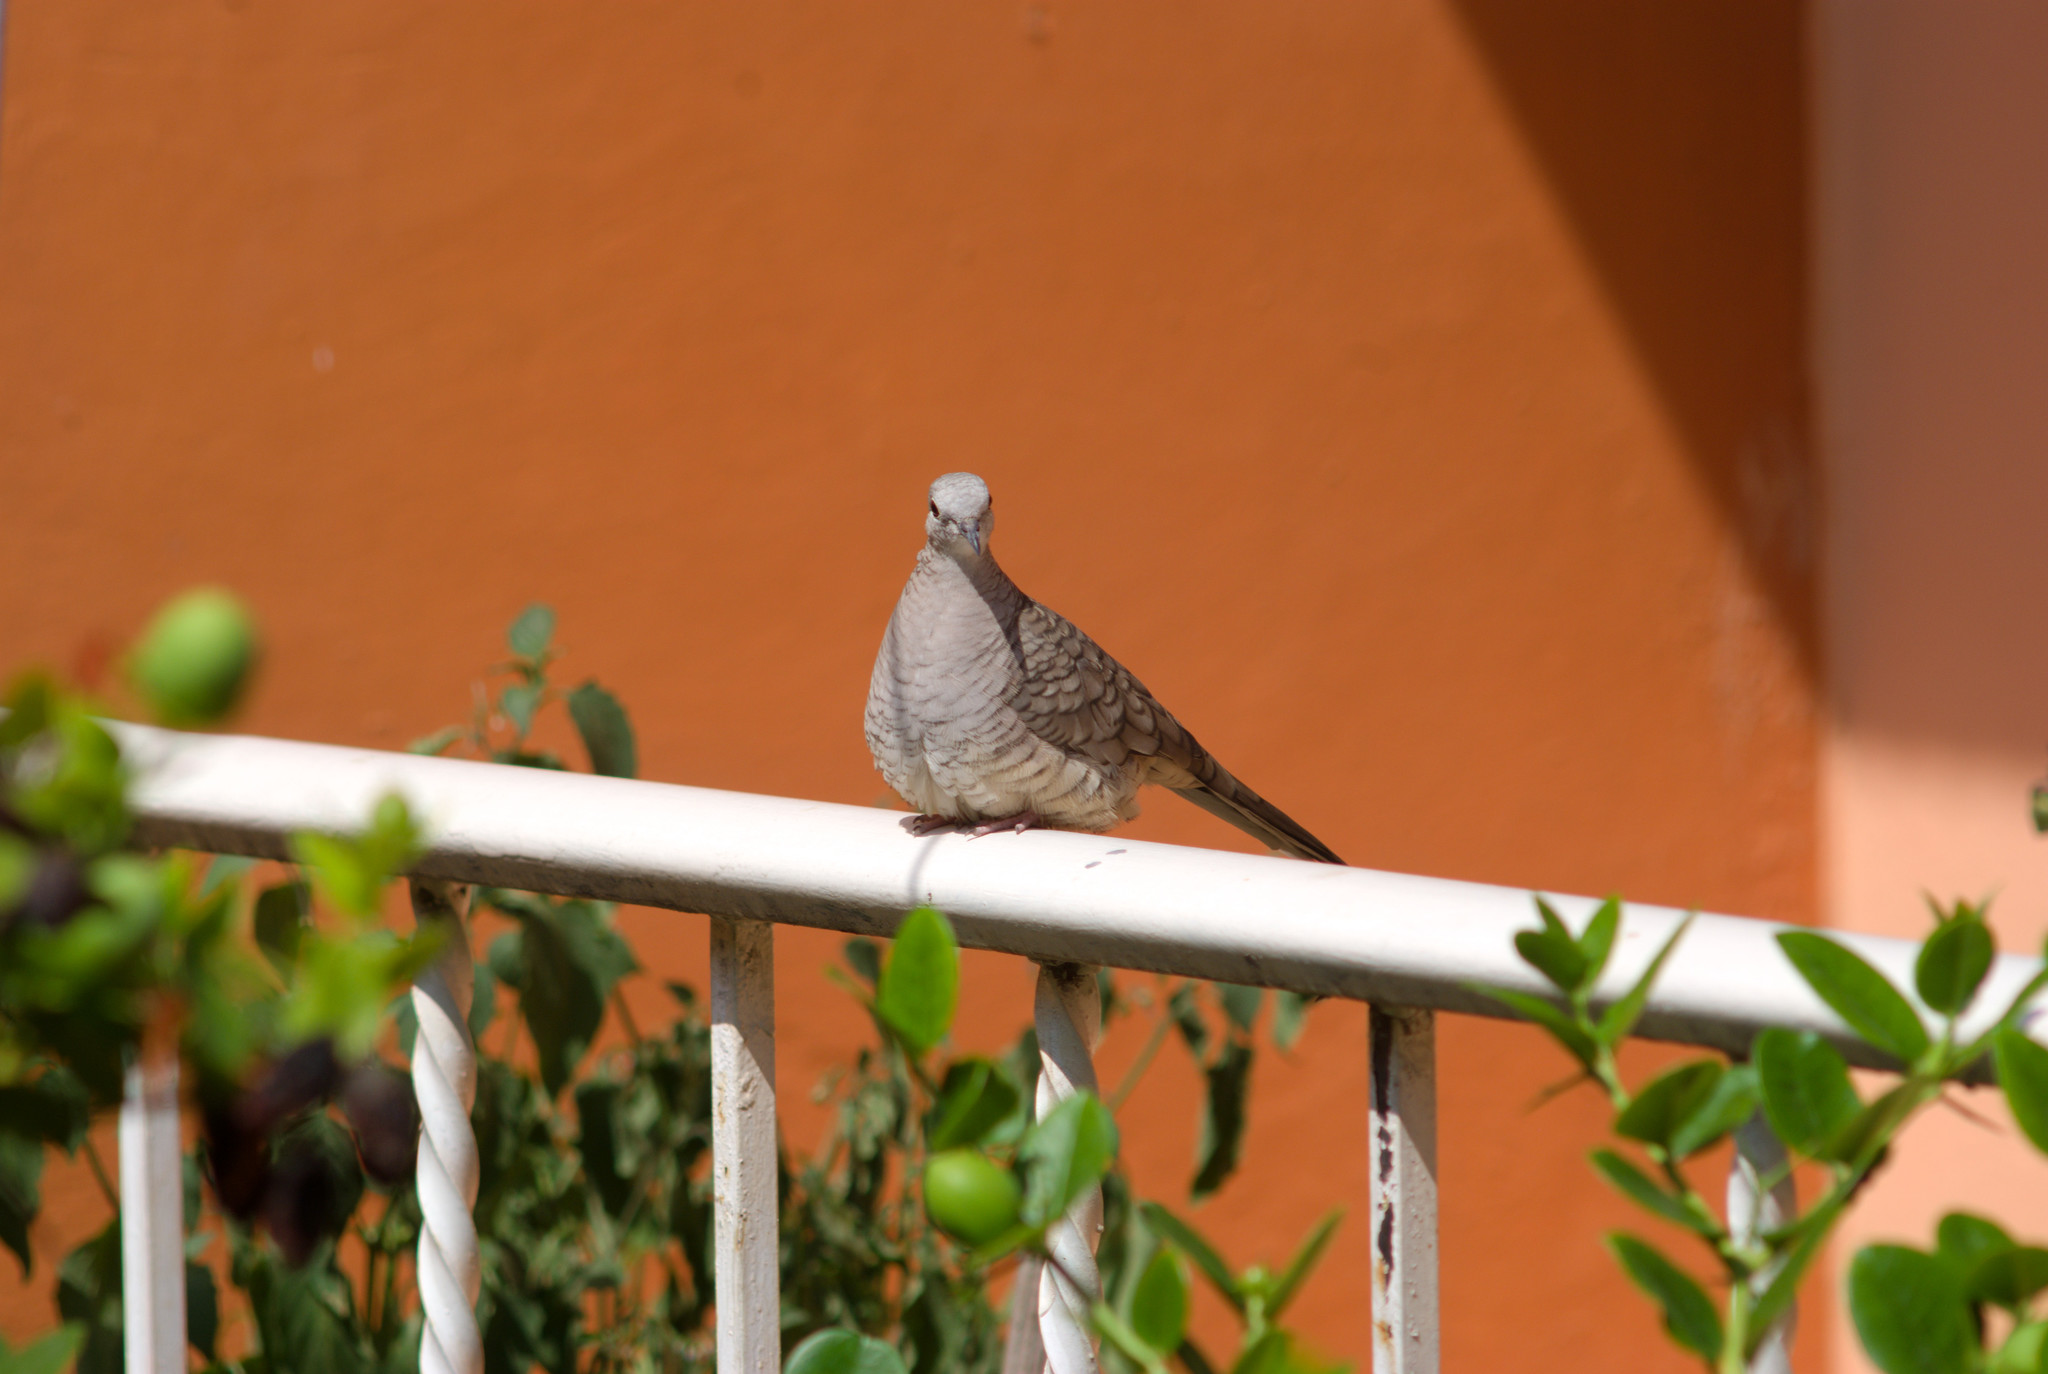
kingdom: Animalia
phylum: Chordata
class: Aves
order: Columbiformes
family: Columbidae
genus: Columbina
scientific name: Columbina inca
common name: Inca dove
